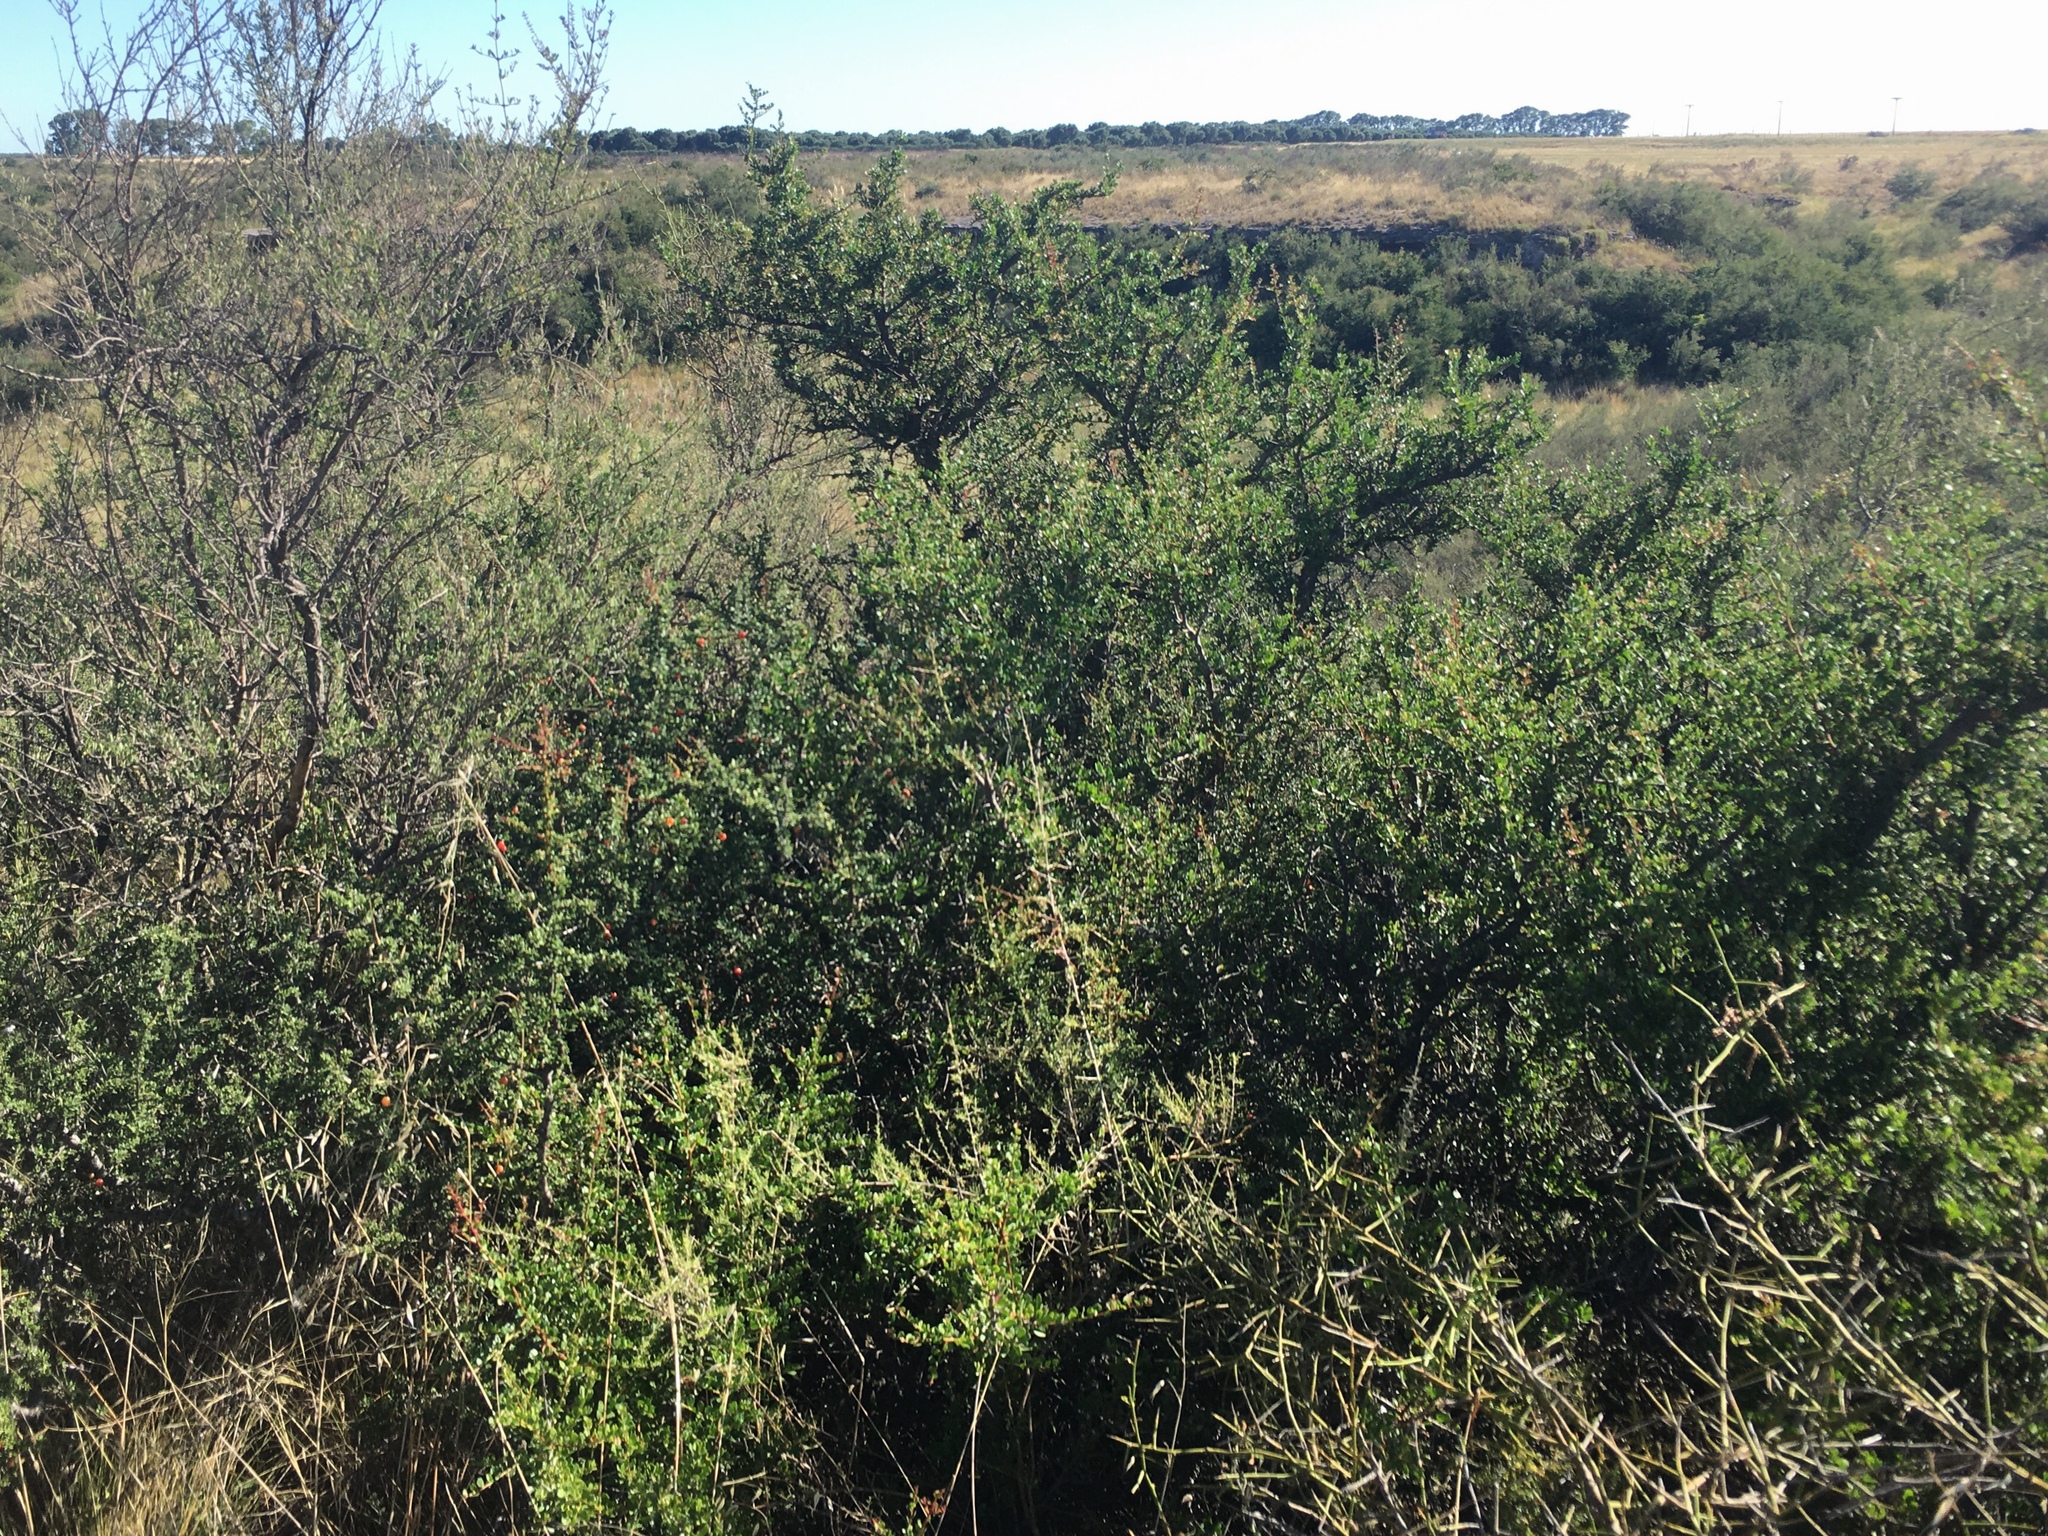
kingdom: Plantae
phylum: Tracheophyta
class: Magnoliopsida
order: Rosales
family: Rhamnaceae
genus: Condalia
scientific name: Condalia microphylla
